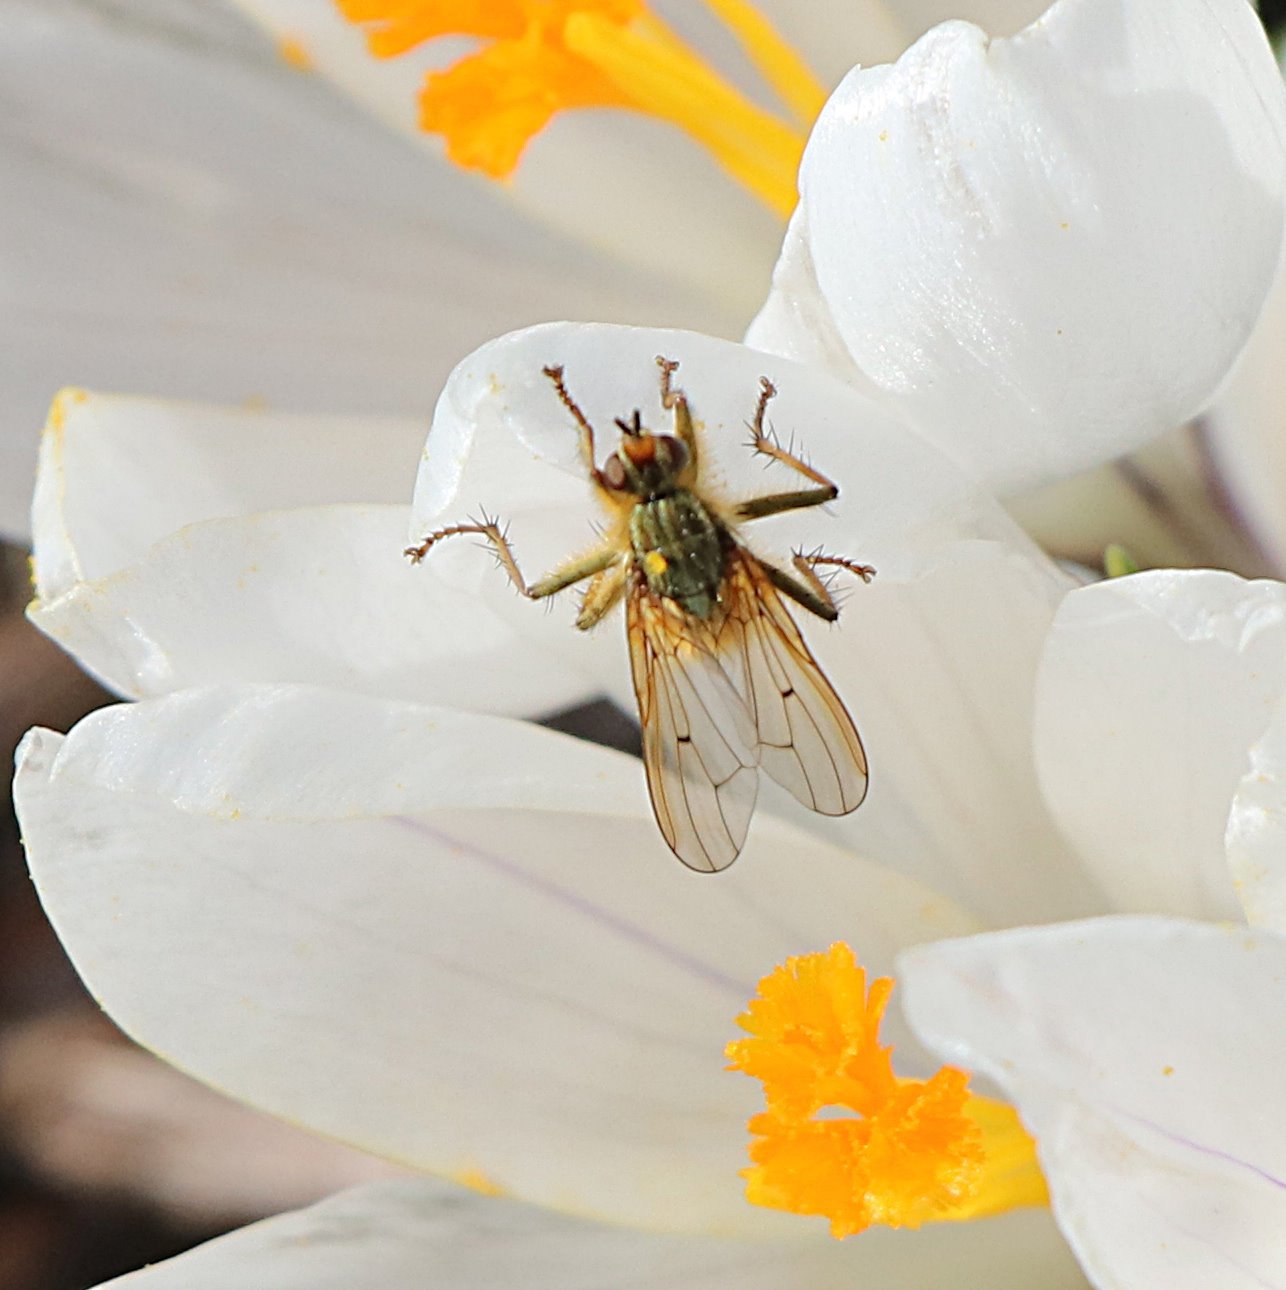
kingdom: Animalia
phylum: Arthropoda
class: Insecta
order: Diptera
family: Scathophagidae
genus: Scathophaga
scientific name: Scathophaga stercoraria
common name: Yellow dung fly
